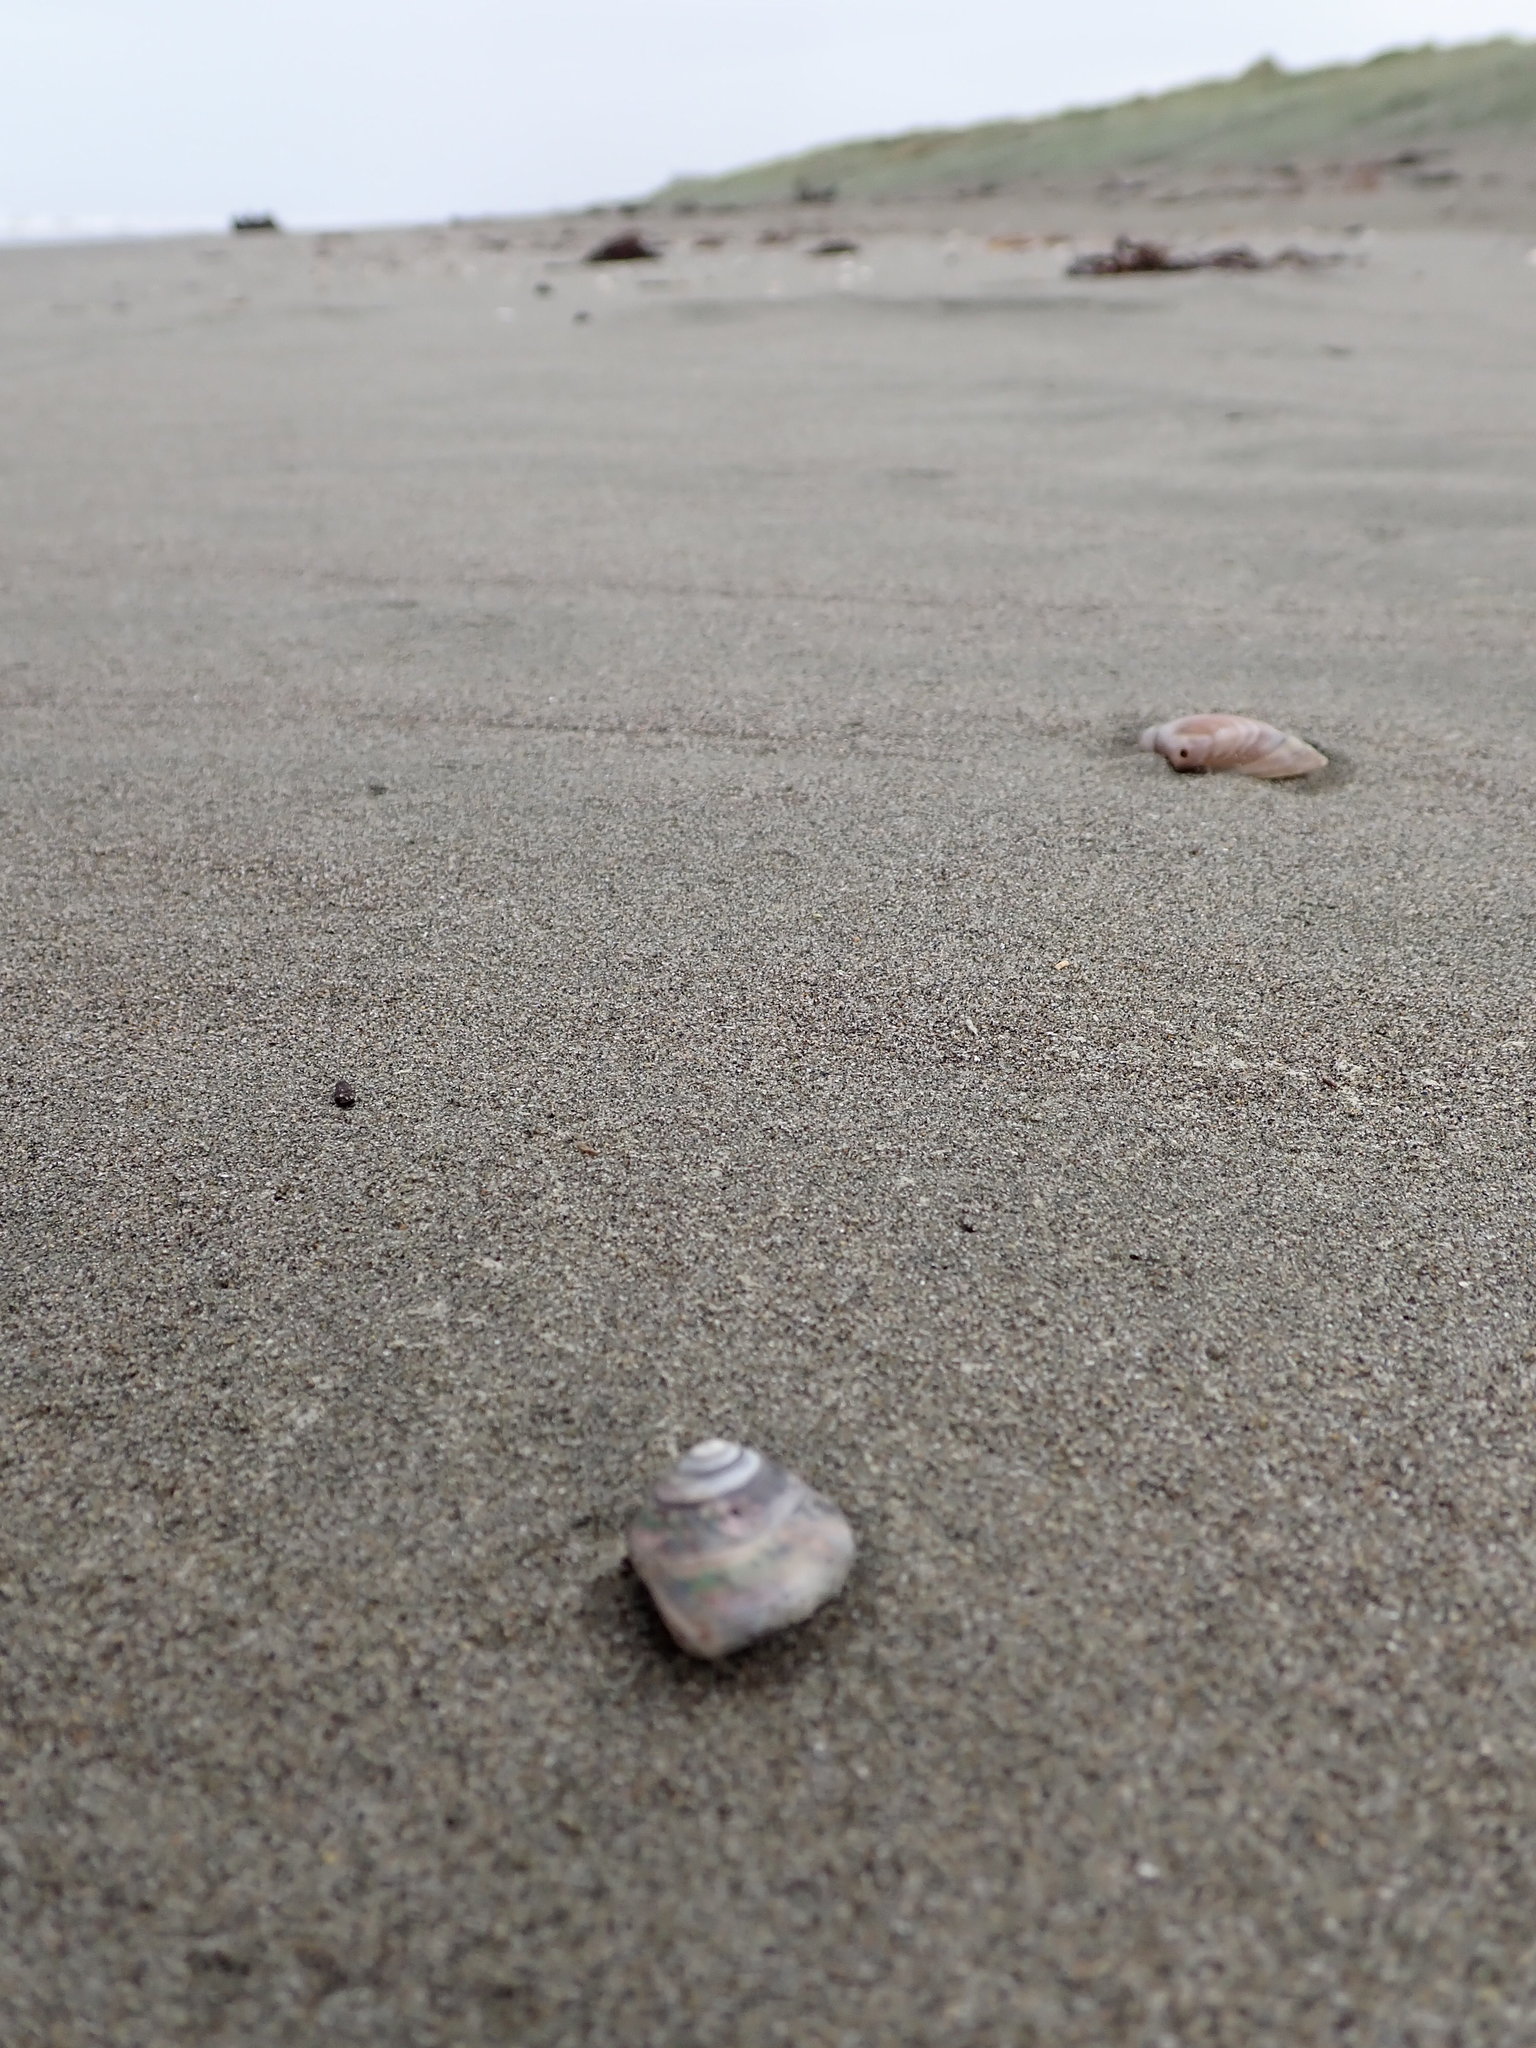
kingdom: Animalia
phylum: Mollusca
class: Gastropoda
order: Trochida
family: Trochidae
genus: Zethalia
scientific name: Zethalia zelandica
